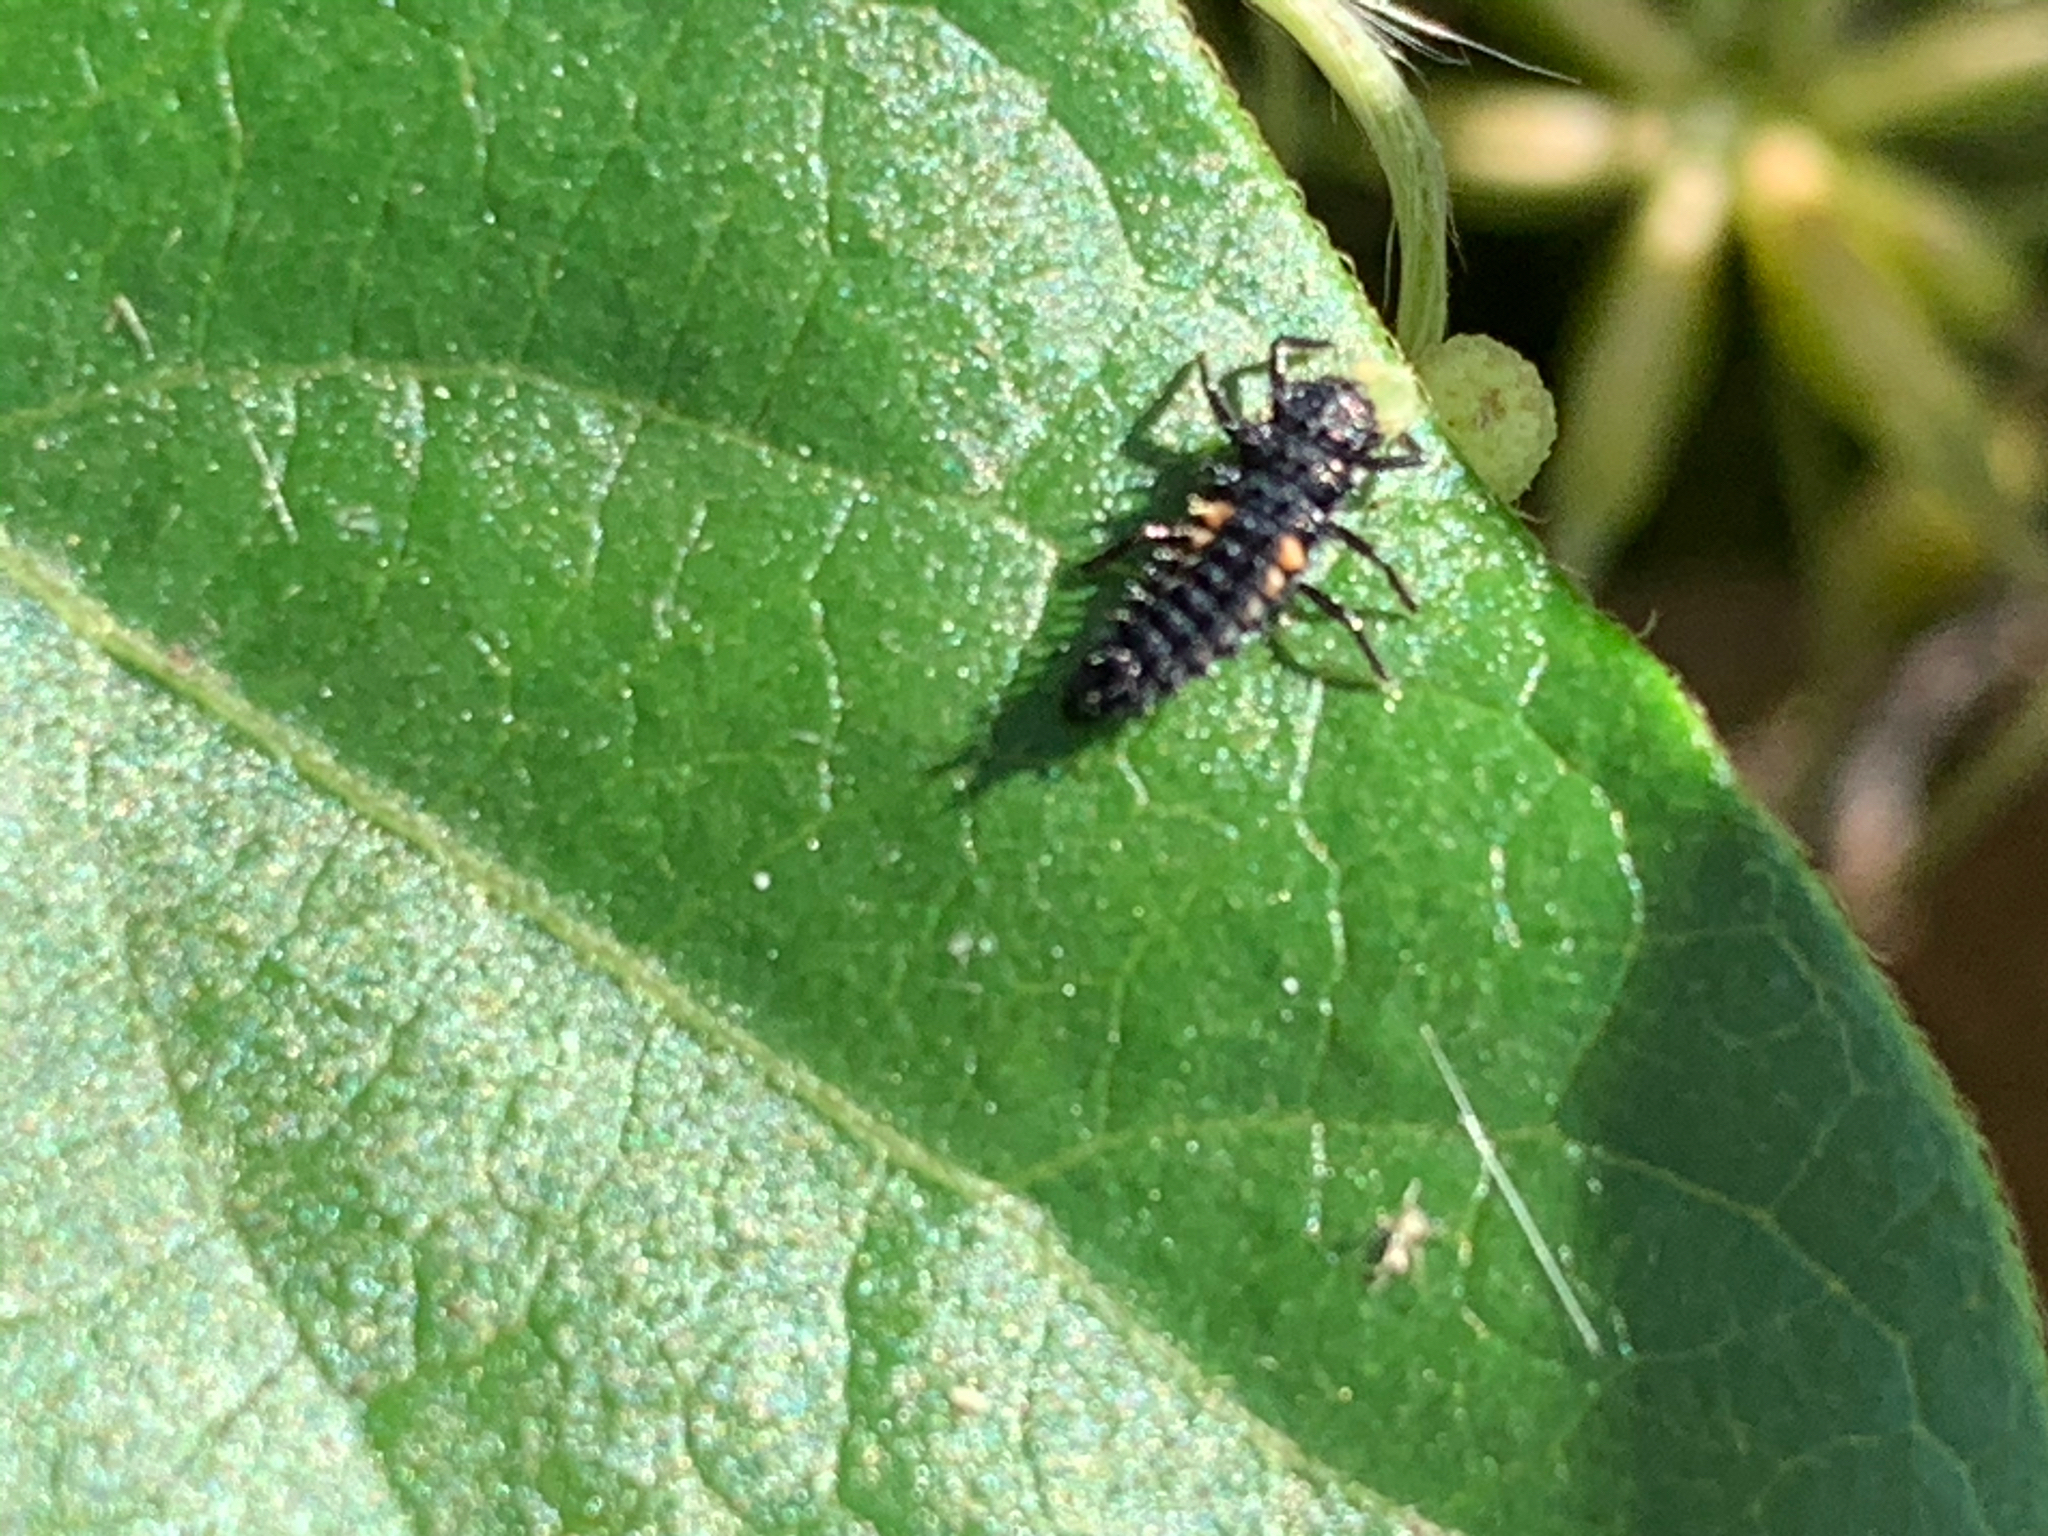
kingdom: Animalia
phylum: Arthropoda
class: Insecta
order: Coleoptera
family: Coccinellidae
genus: Harmonia
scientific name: Harmonia axyridis
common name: Harlequin ladybird
